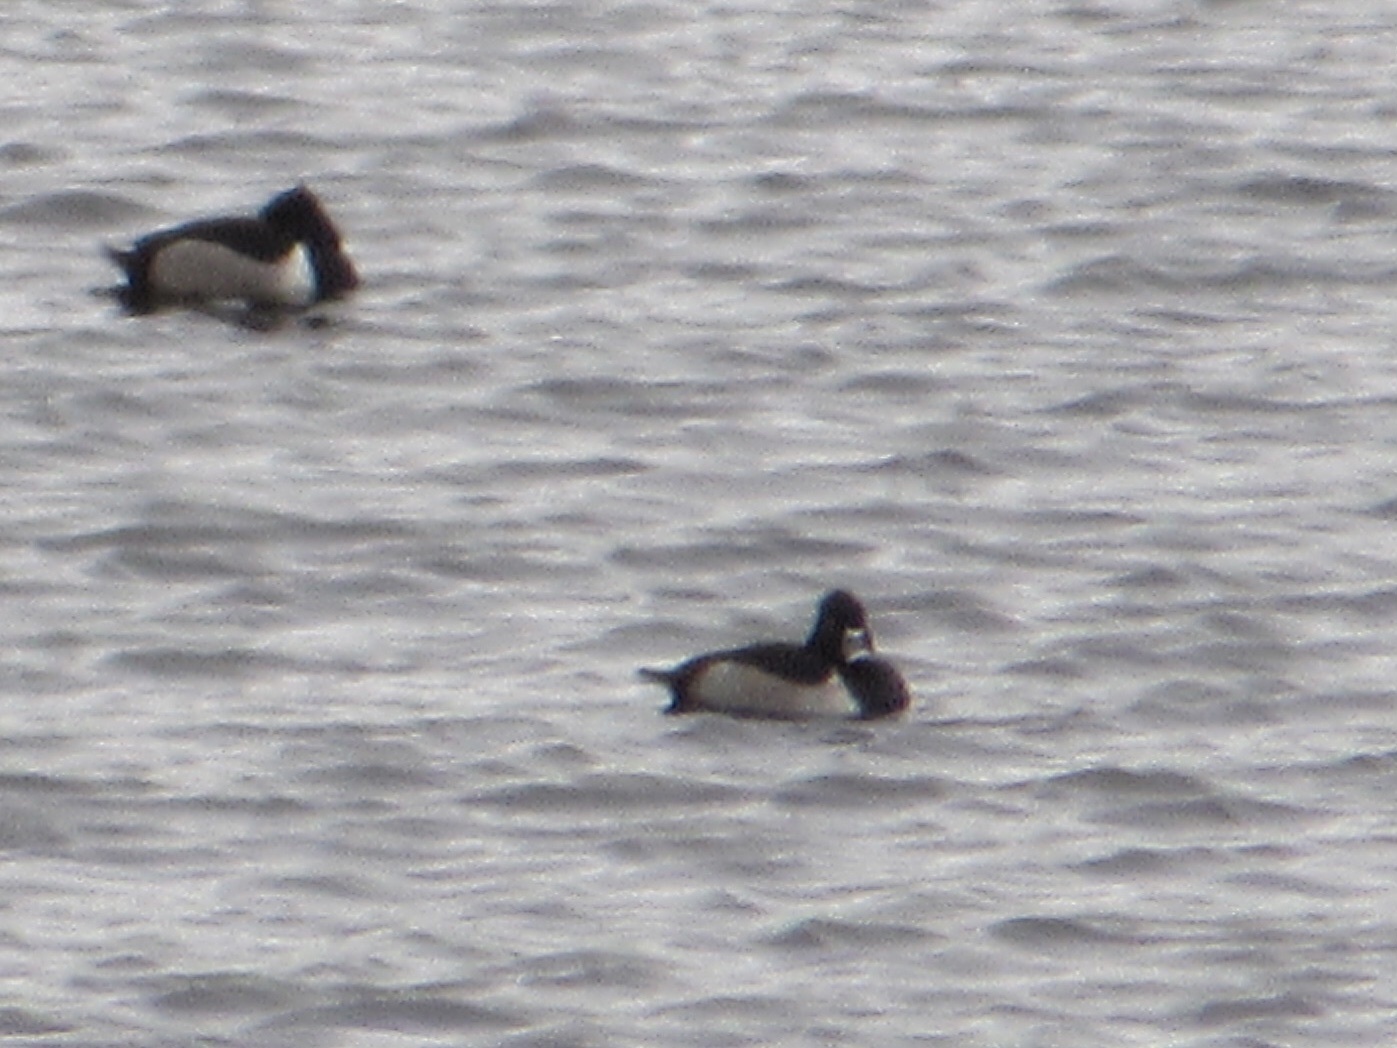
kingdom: Animalia
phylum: Chordata
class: Aves
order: Anseriformes
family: Anatidae
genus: Aythya
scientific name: Aythya collaris
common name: Ring-necked duck
